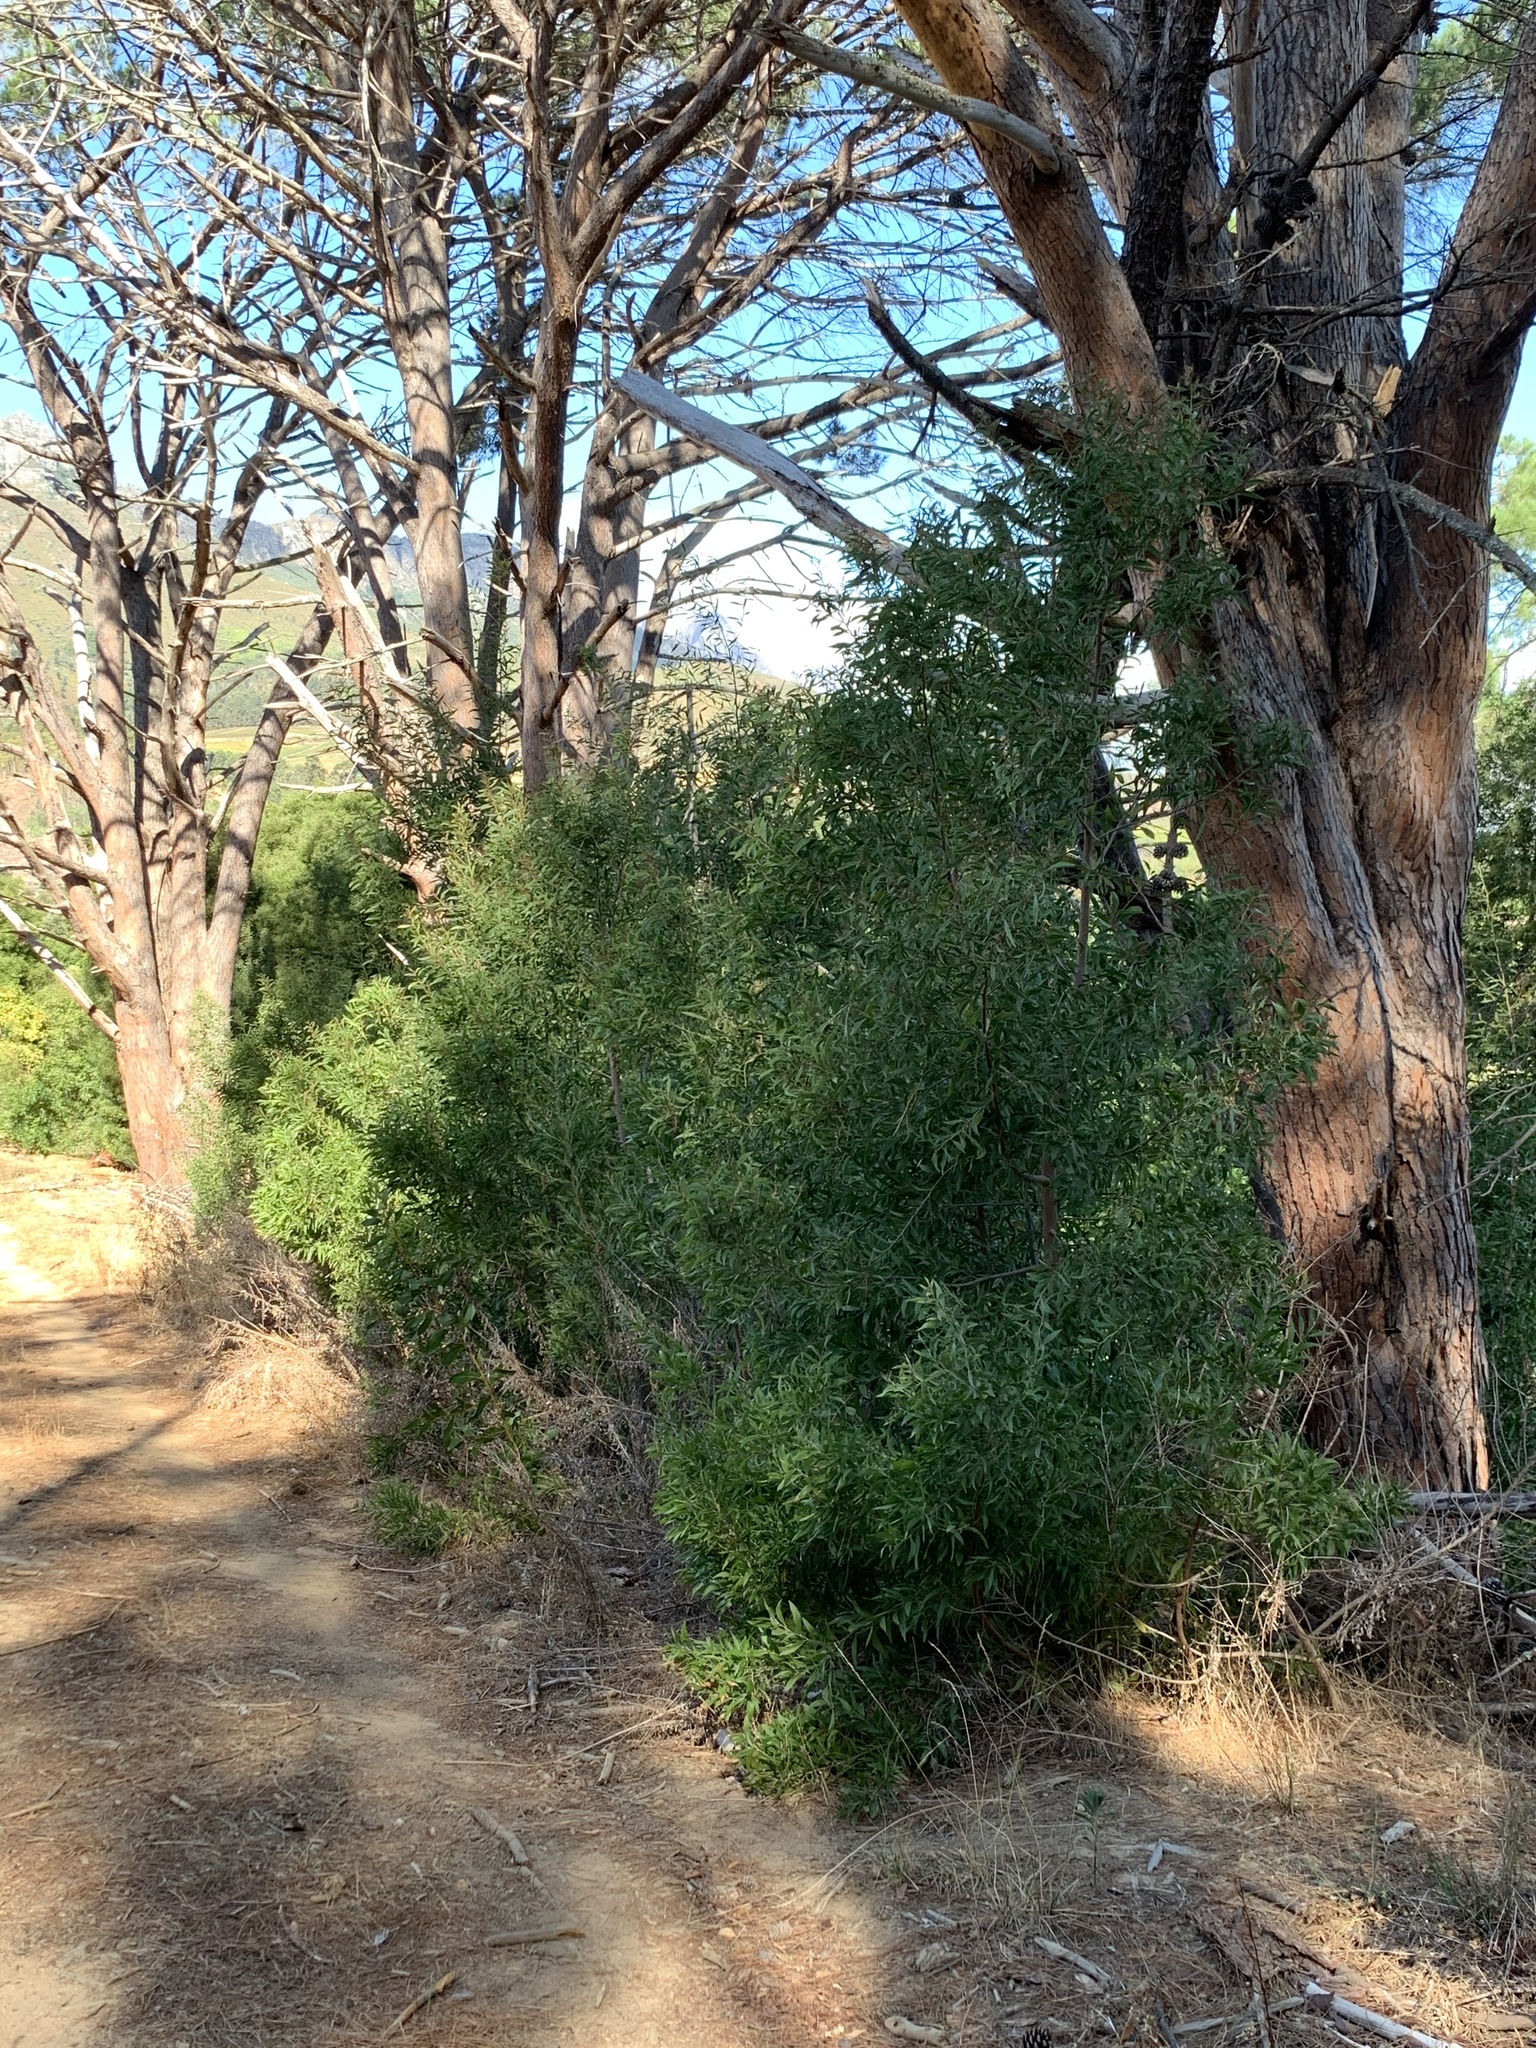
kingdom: Plantae
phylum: Tracheophyta
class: Magnoliopsida
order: Fabales
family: Fabaceae
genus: Acacia
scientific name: Acacia melanoxylon
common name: Blackwood
